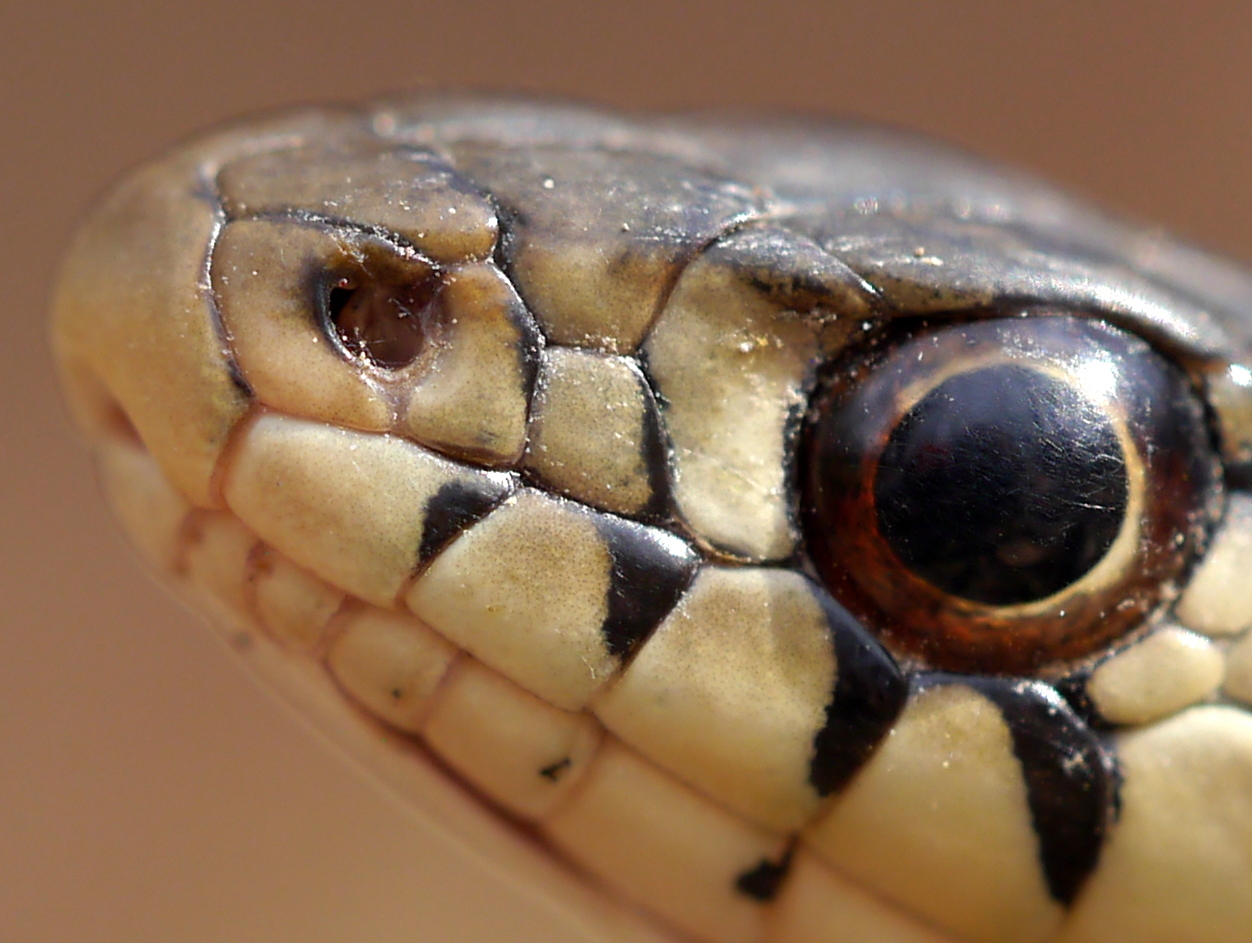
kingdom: Animalia
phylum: Chordata
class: Squamata
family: Colubridae
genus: Thamnophis
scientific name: Thamnophis sirtalis
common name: Common garter snake
